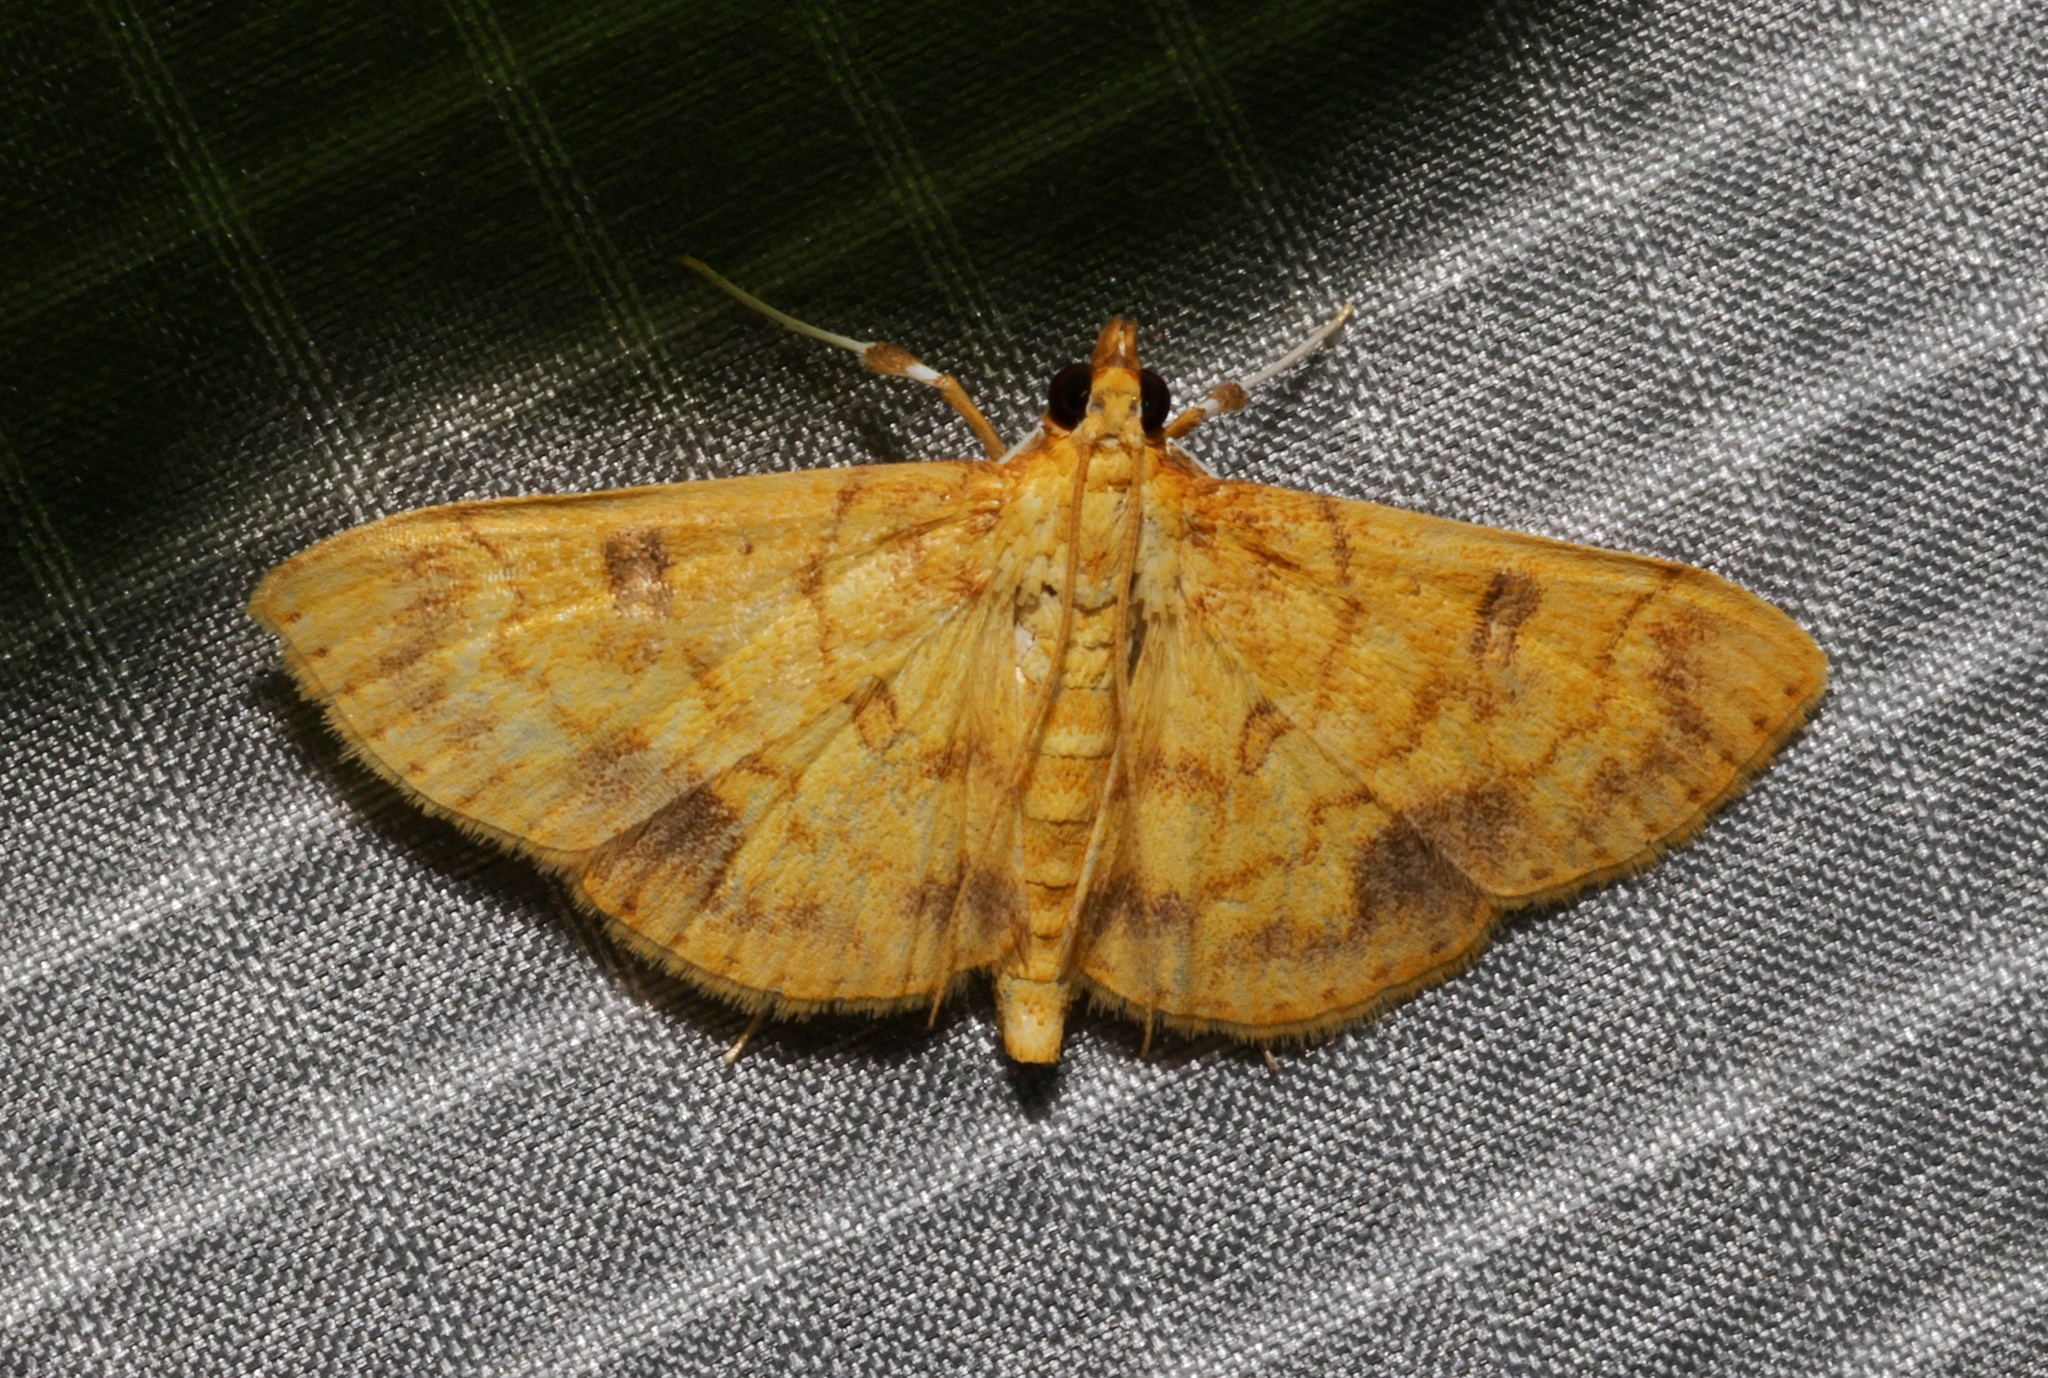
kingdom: Animalia
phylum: Arthropoda
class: Insecta
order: Lepidoptera
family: Crambidae
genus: Pyrausta
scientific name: Pyrausta ochracealis
